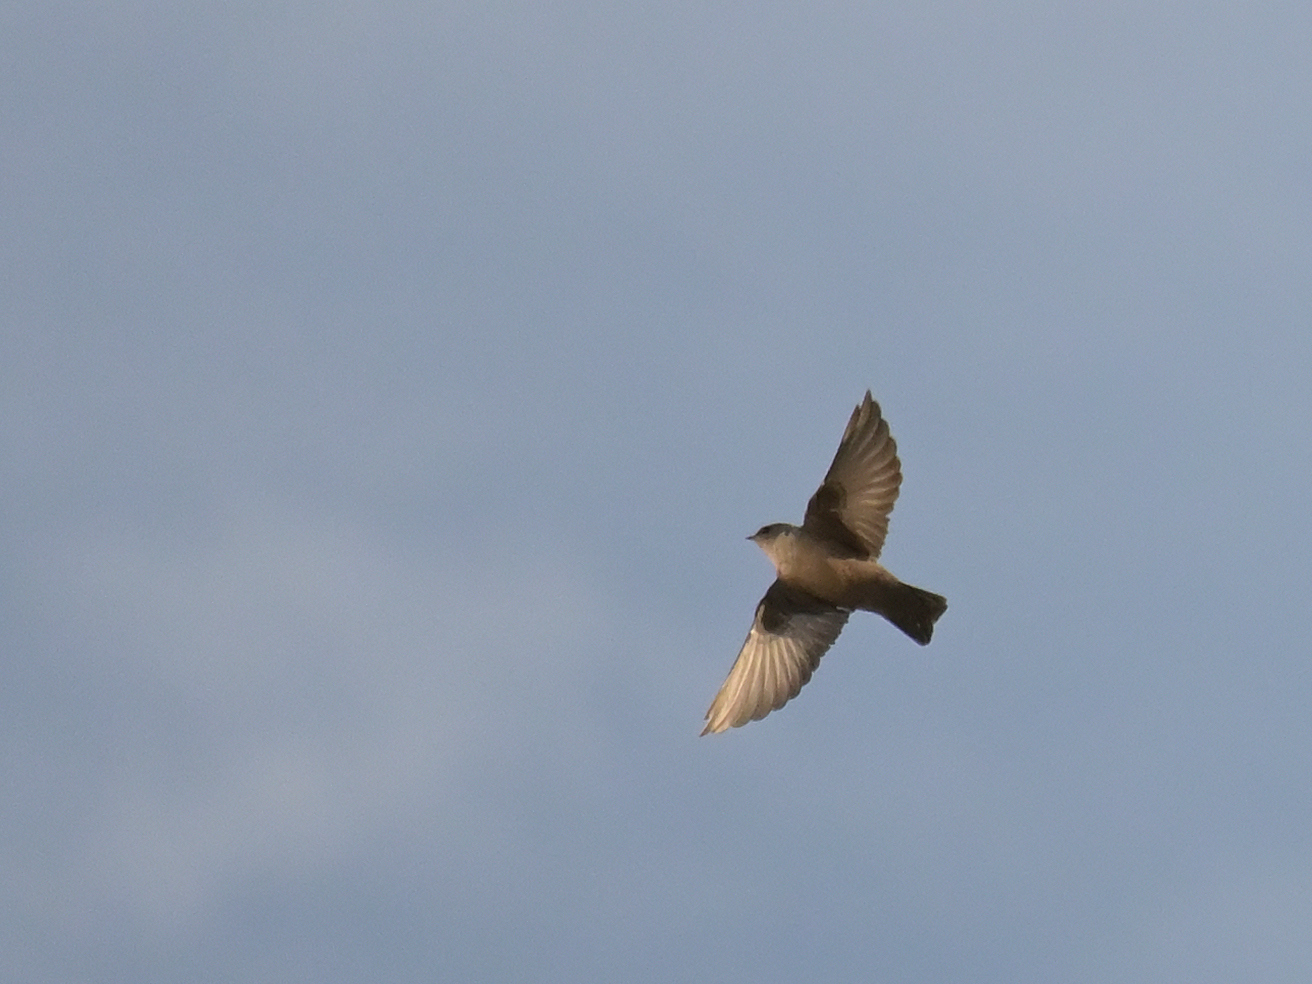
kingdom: Animalia
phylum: Chordata
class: Aves
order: Passeriformes
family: Hirundinidae
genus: Ptyonoprogne
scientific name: Ptyonoprogne rupestris
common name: Eurasian crag martin
